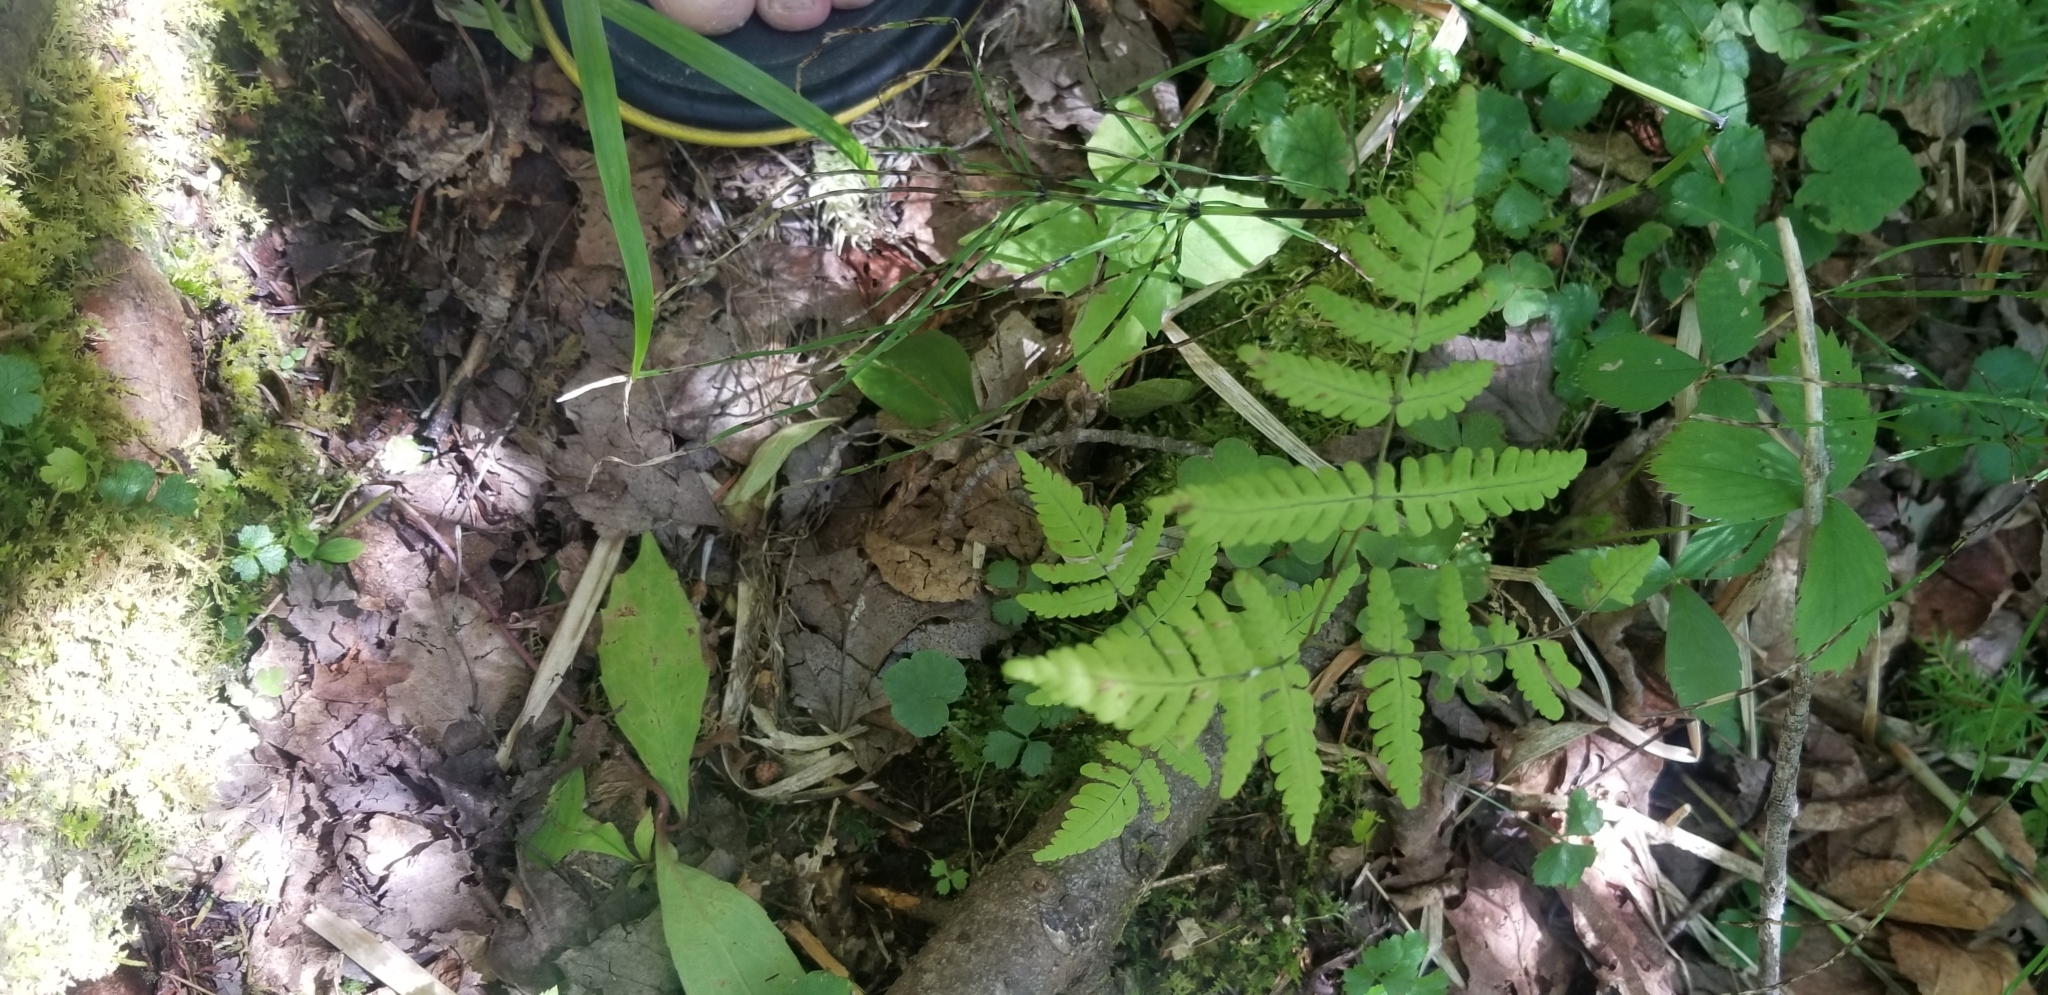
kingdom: Plantae
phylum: Tracheophyta
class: Polypodiopsida
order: Polypodiales
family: Cystopteridaceae
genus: Gymnocarpium
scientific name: Gymnocarpium dryopteris
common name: Oak fern
